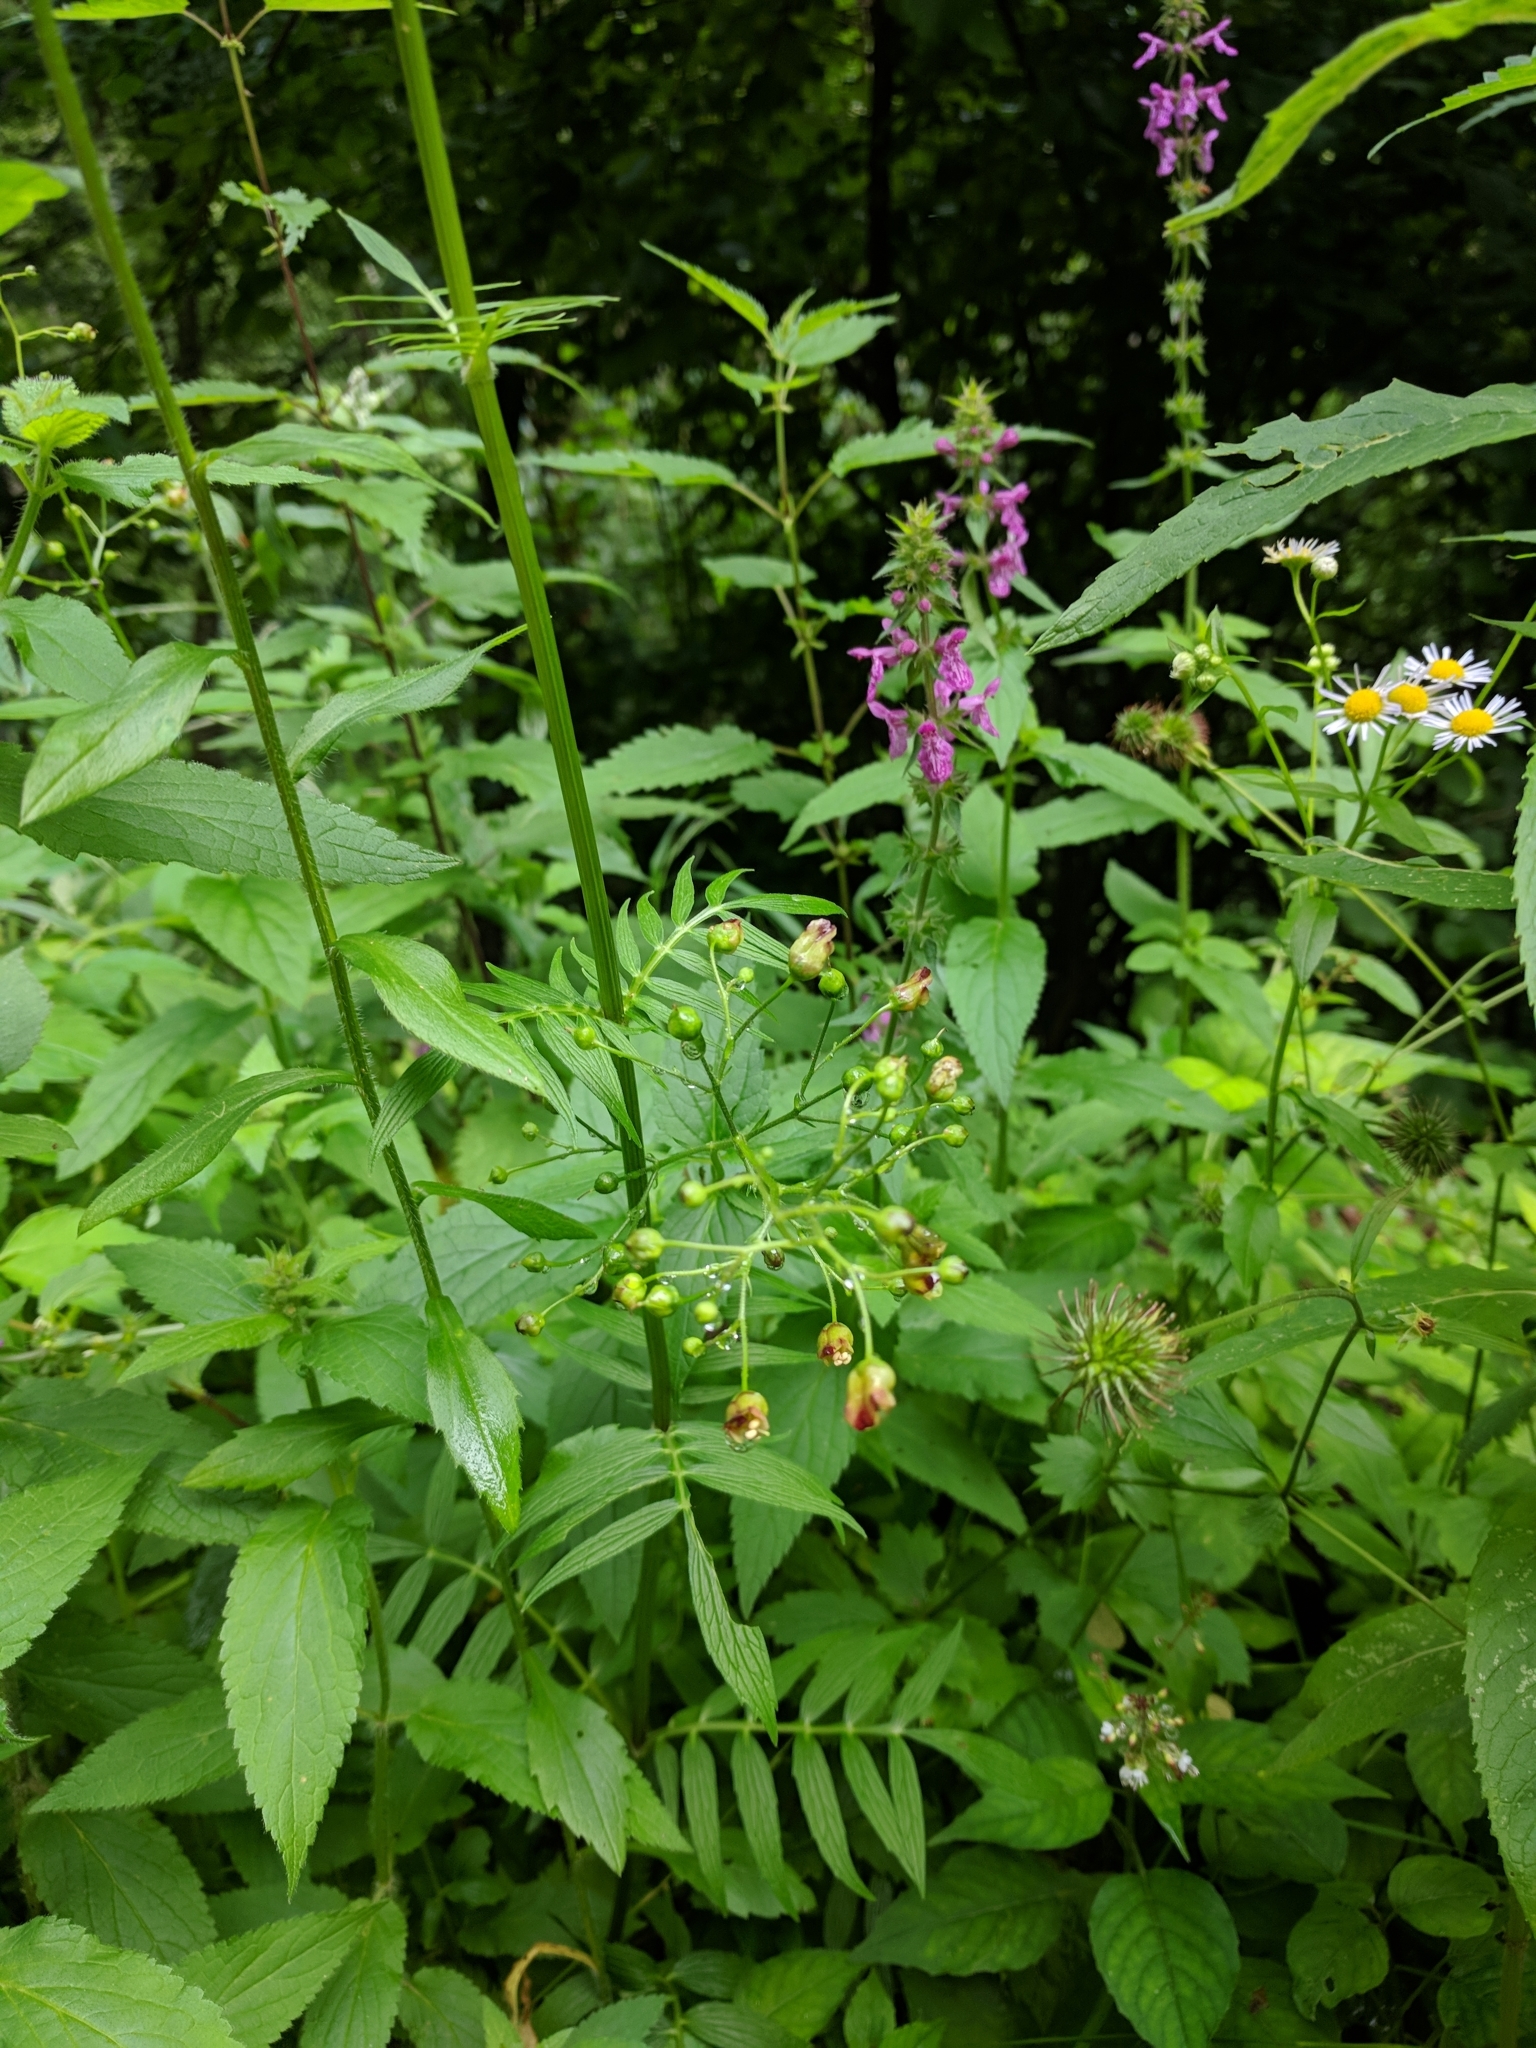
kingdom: Plantae
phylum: Tracheophyta
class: Magnoliopsida
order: Lamiales
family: Scrophulariaceae
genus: Scrophularia
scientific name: Scrophularia nodosa
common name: Common figwort
